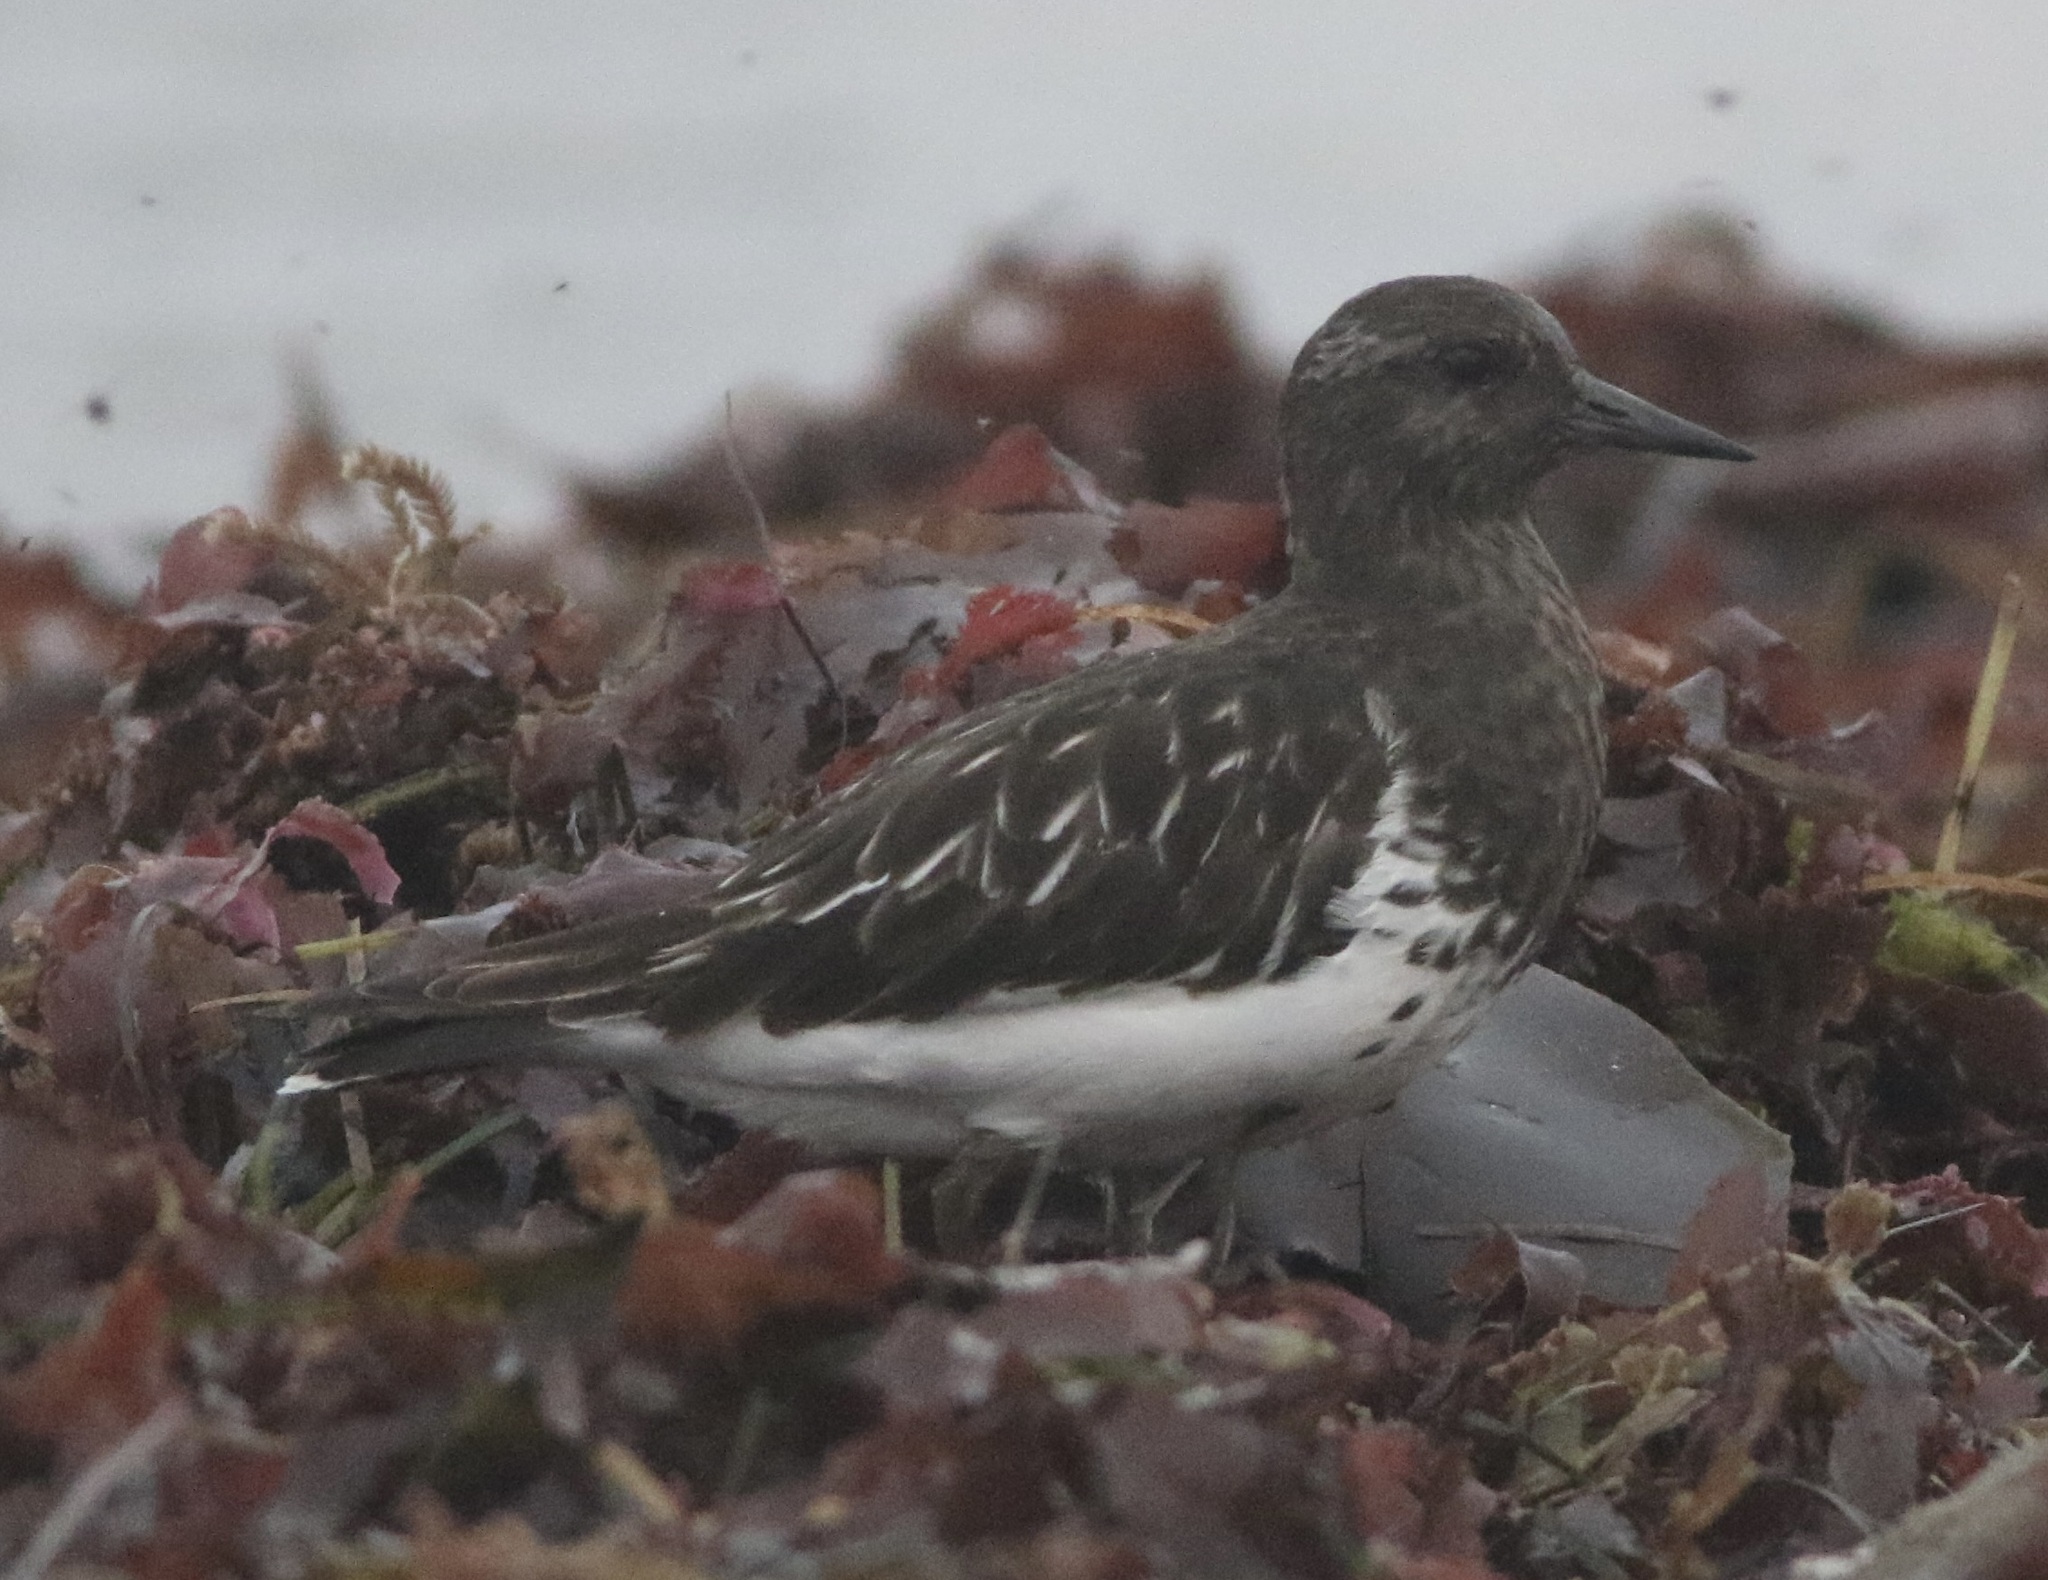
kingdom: Animalia
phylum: Chordata
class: Aves
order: Charadriiformes
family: Scolopacidae
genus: Arenaria
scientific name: Arenaria melanocephala
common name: Black turnstone
